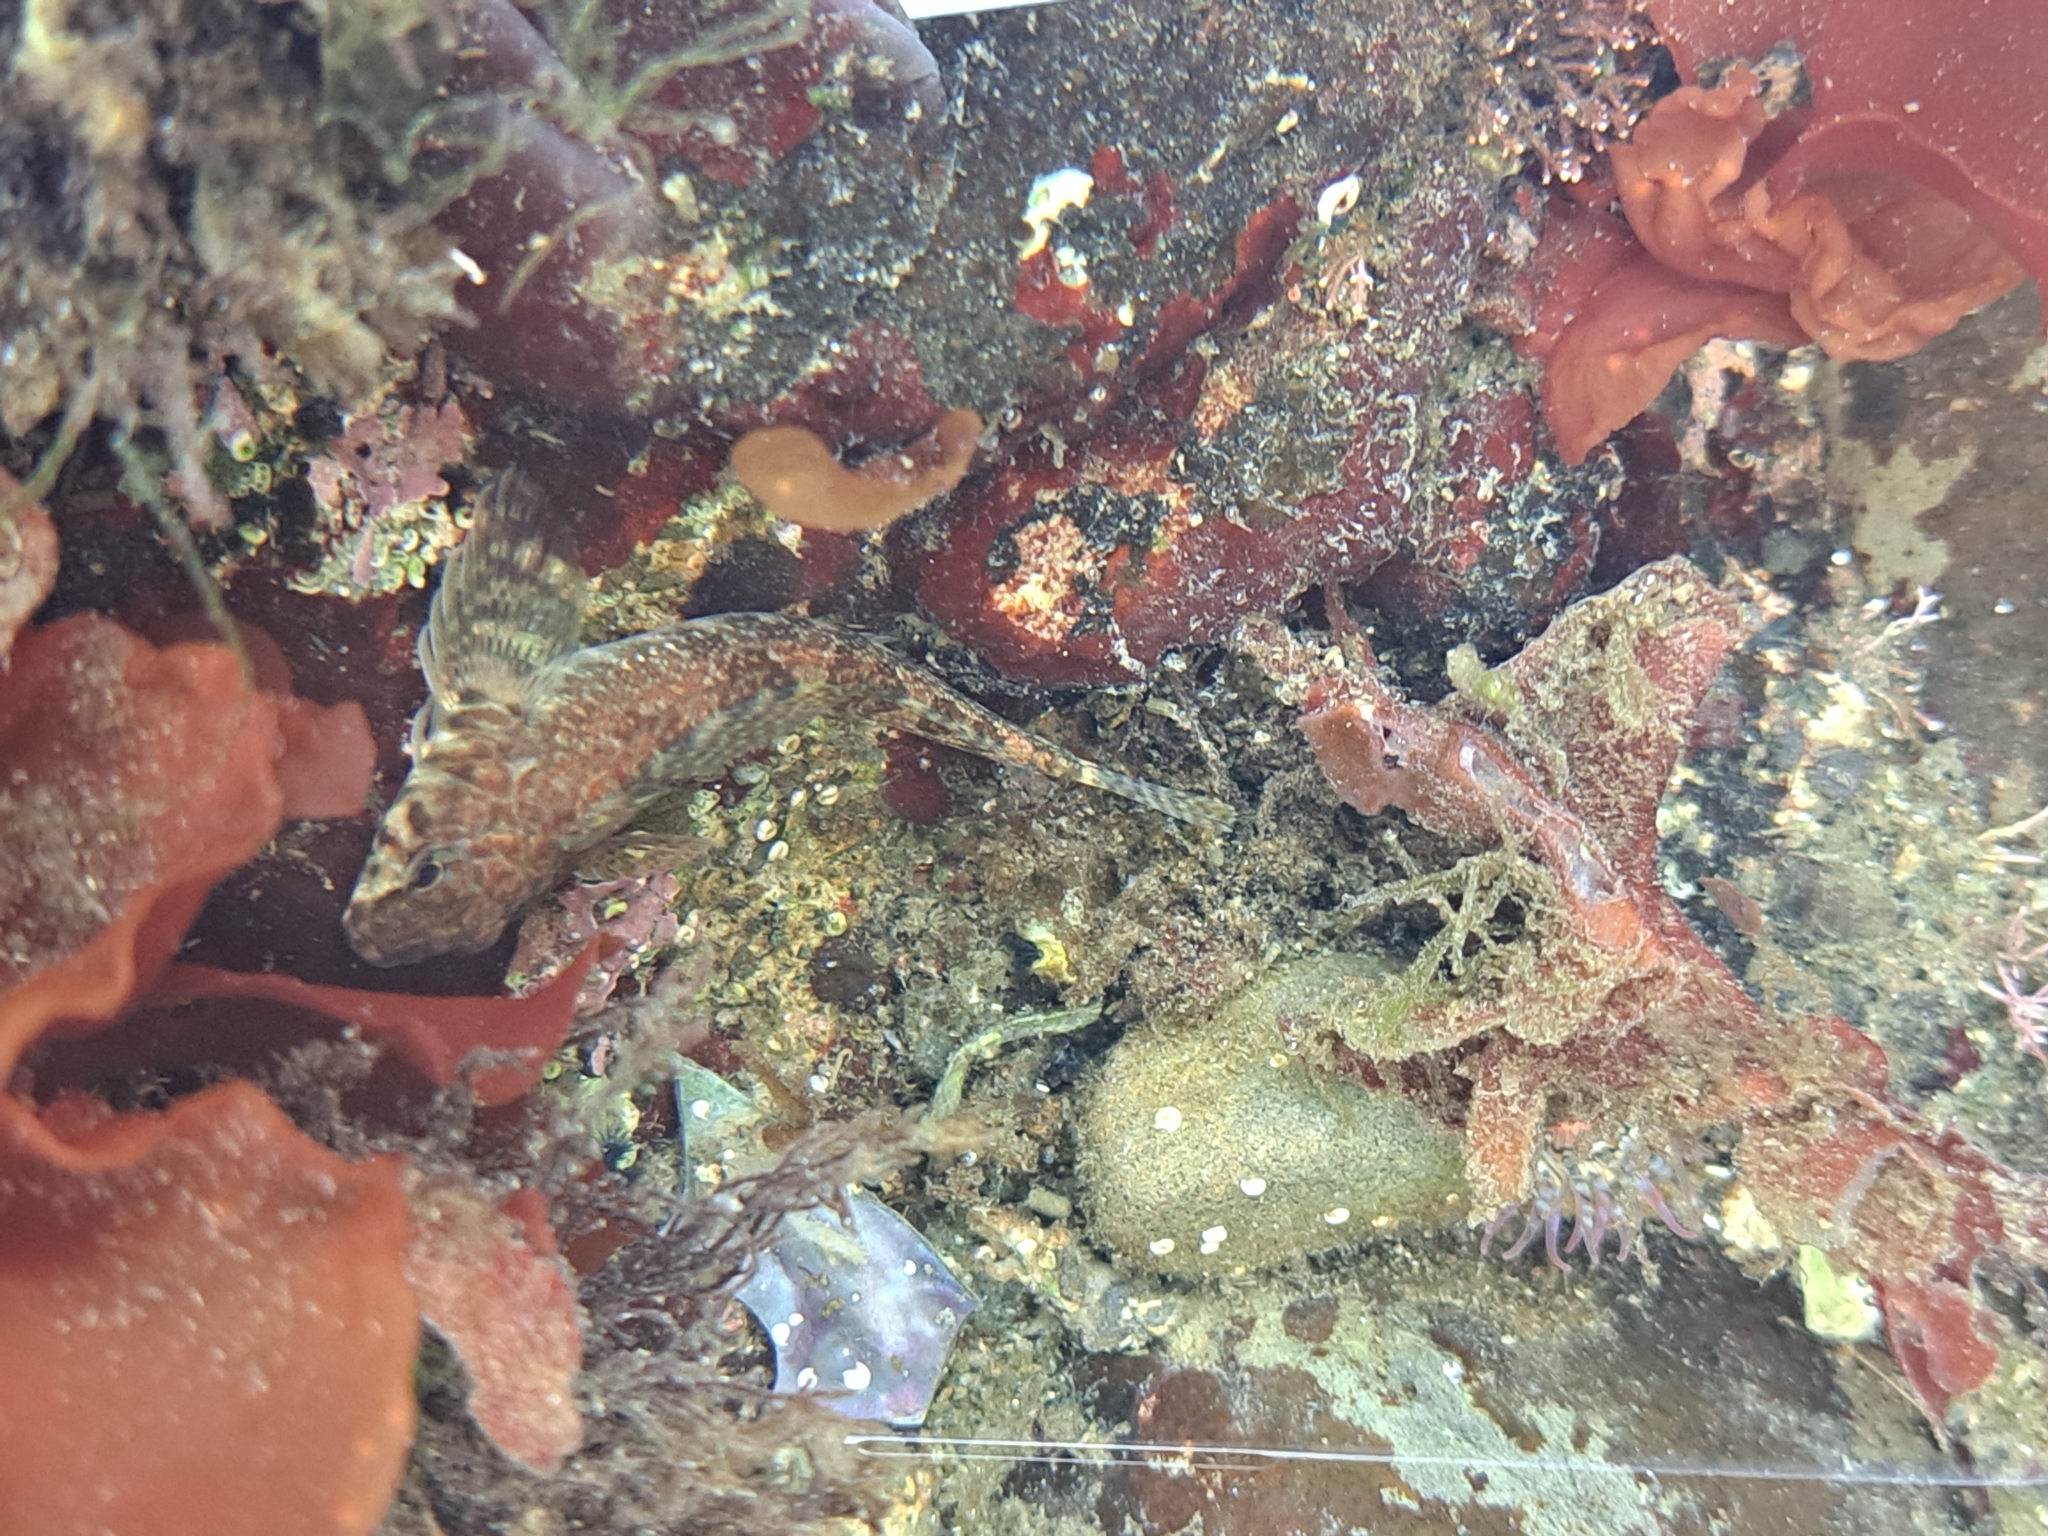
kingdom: Animalia
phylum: Chordata
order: Perciformes
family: Tripterygiidae
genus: Bellapiscis
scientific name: Bellapiscis medius
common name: Twister
